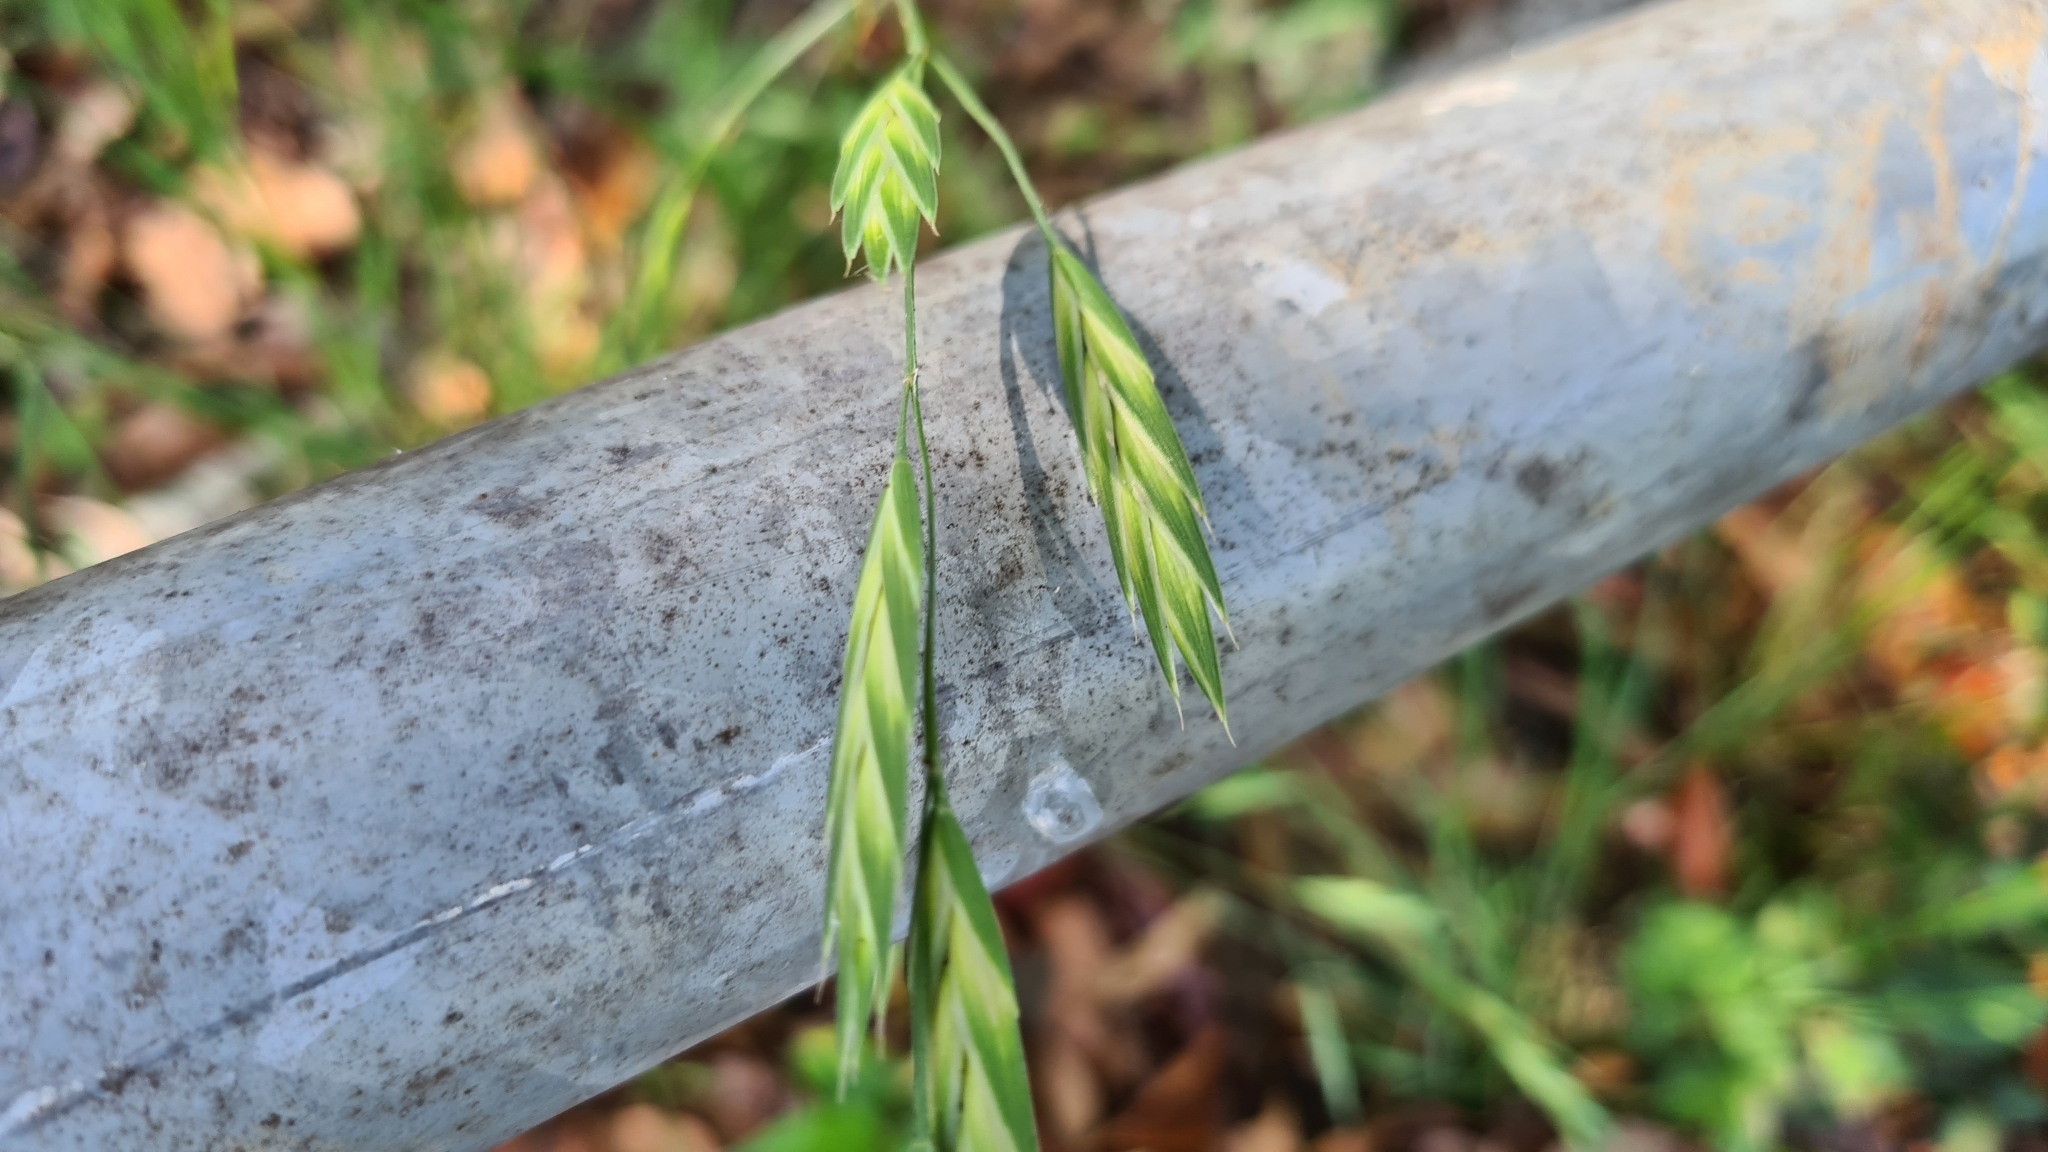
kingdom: Plantae
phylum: Tracheophyta
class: Liliopsida
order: Poales
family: Poaceae
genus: Bromus
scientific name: Bromus catharticus
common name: Rescuegrass
